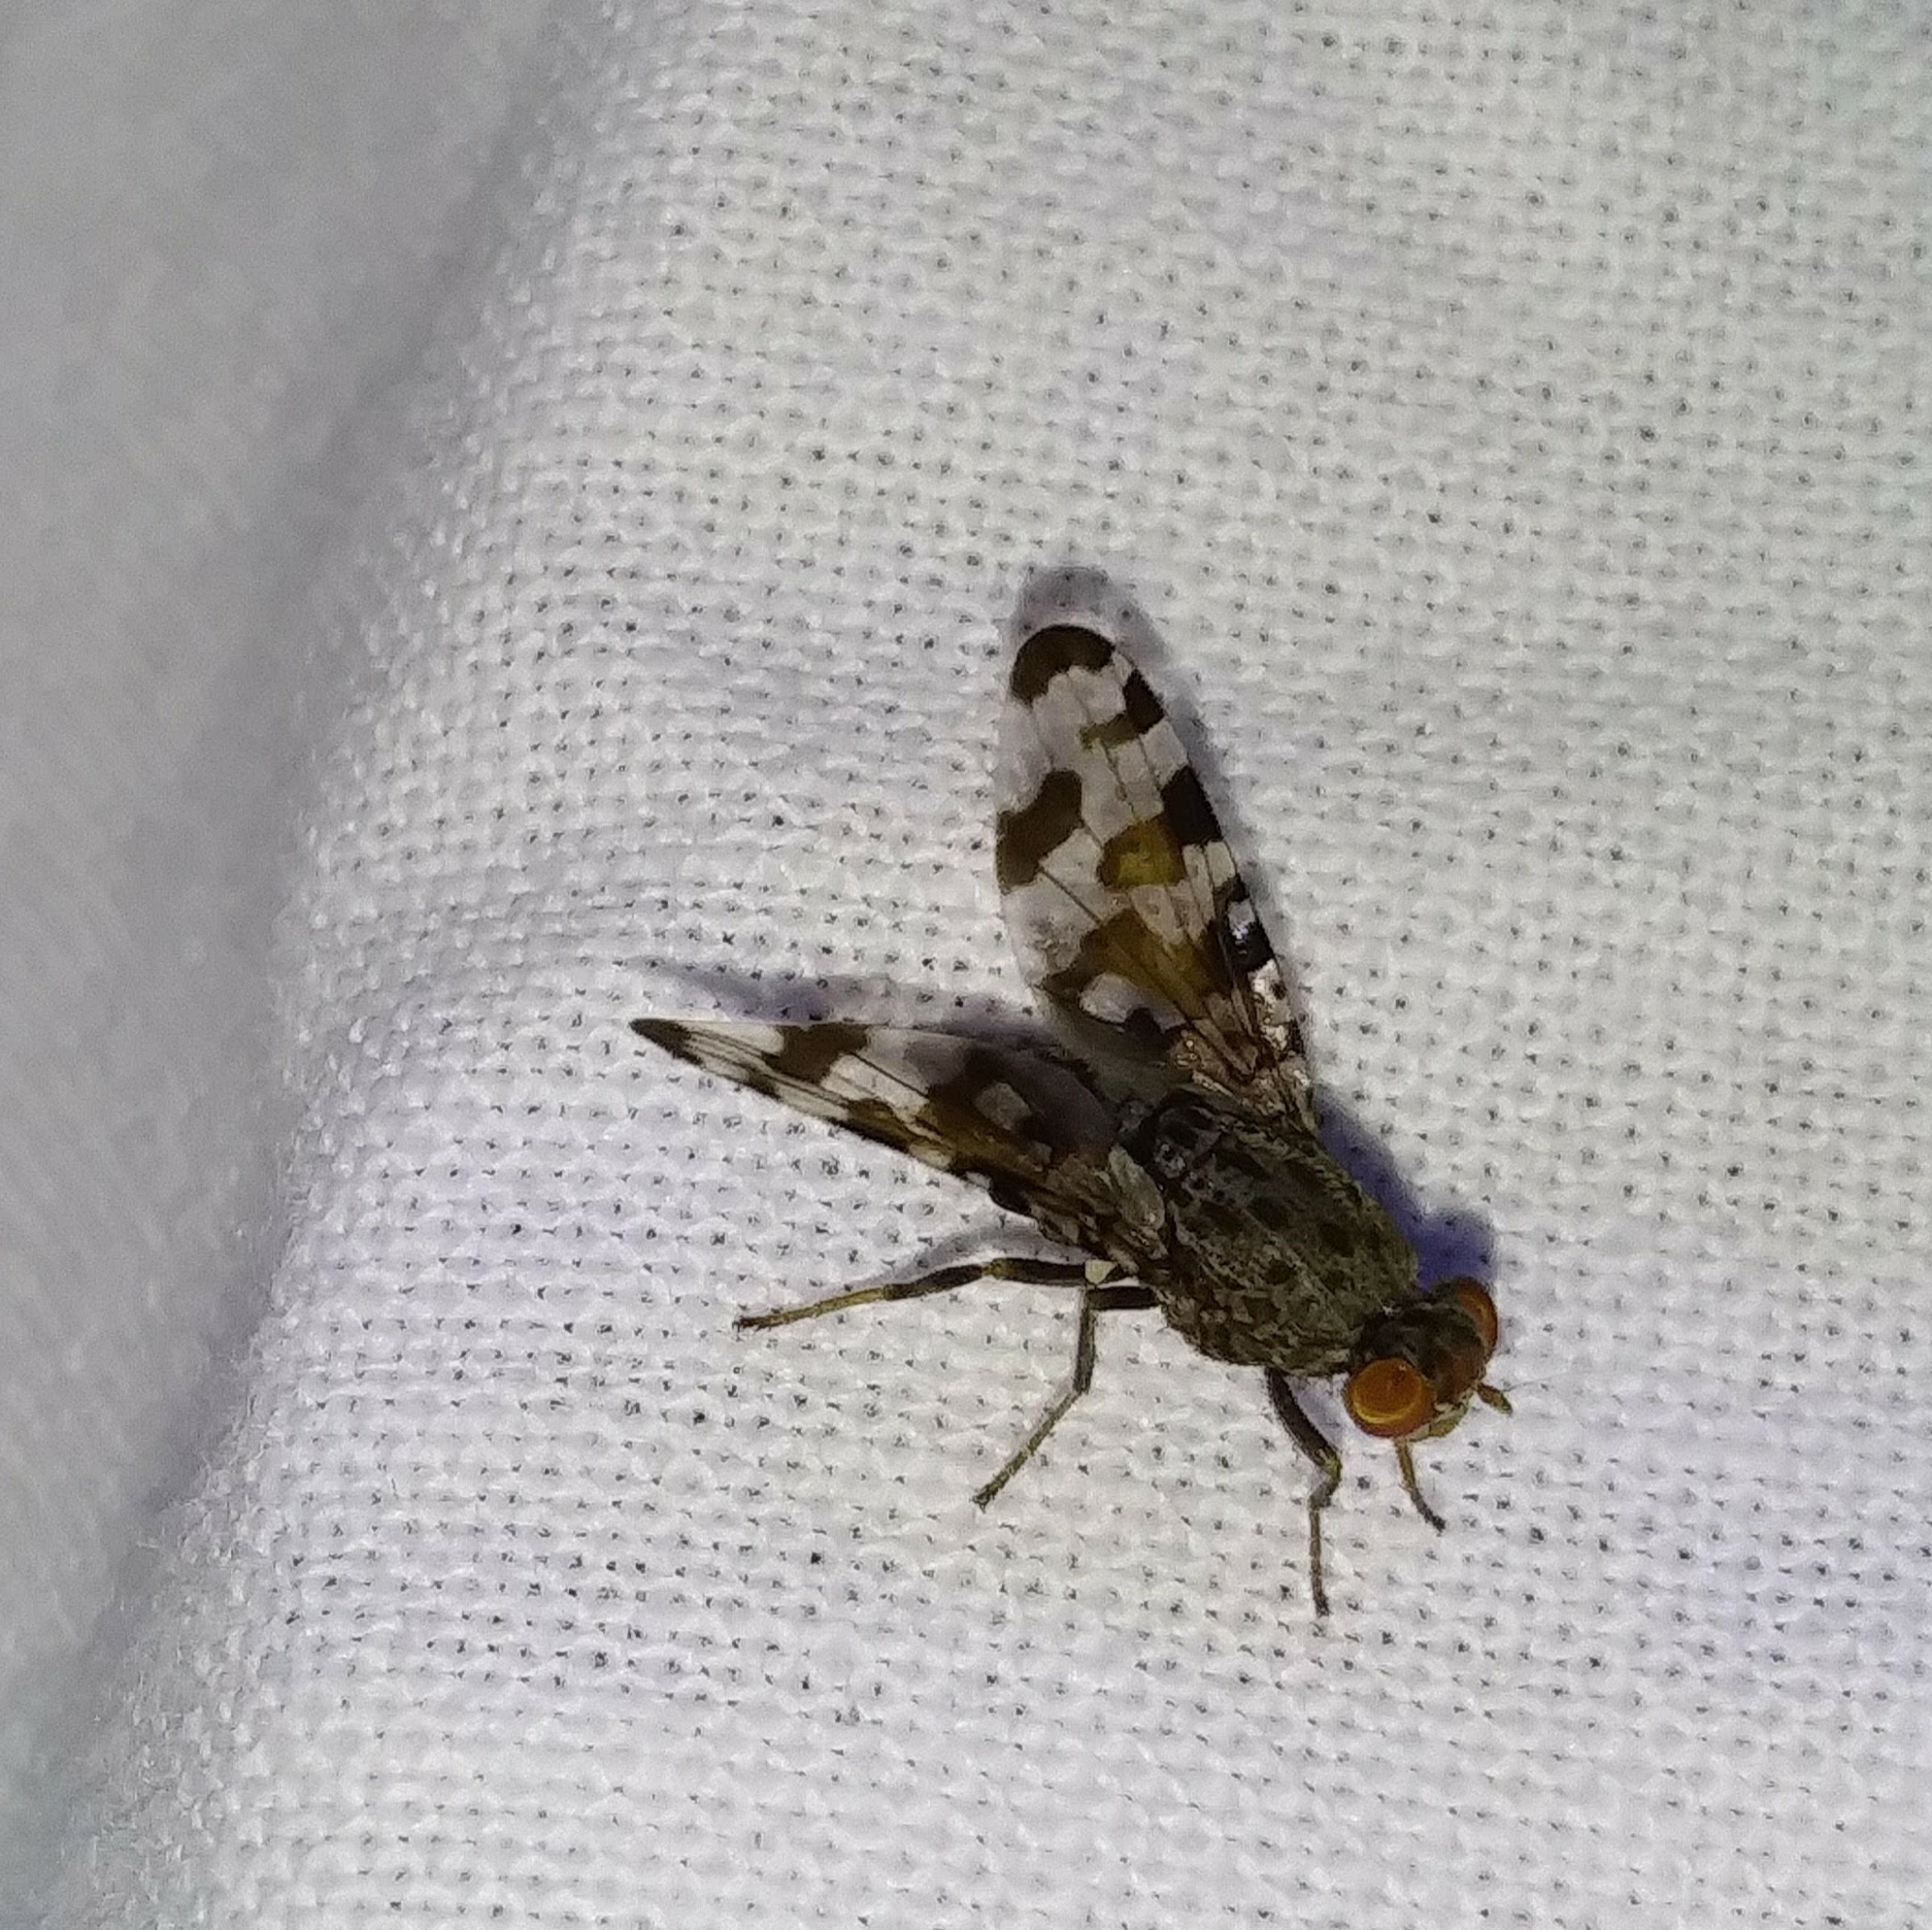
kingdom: Animalia
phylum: Arthropoda
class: Insecta
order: Diptera
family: Ulidiidae
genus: Pseudotephritis
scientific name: Pseudotephritis approximata
